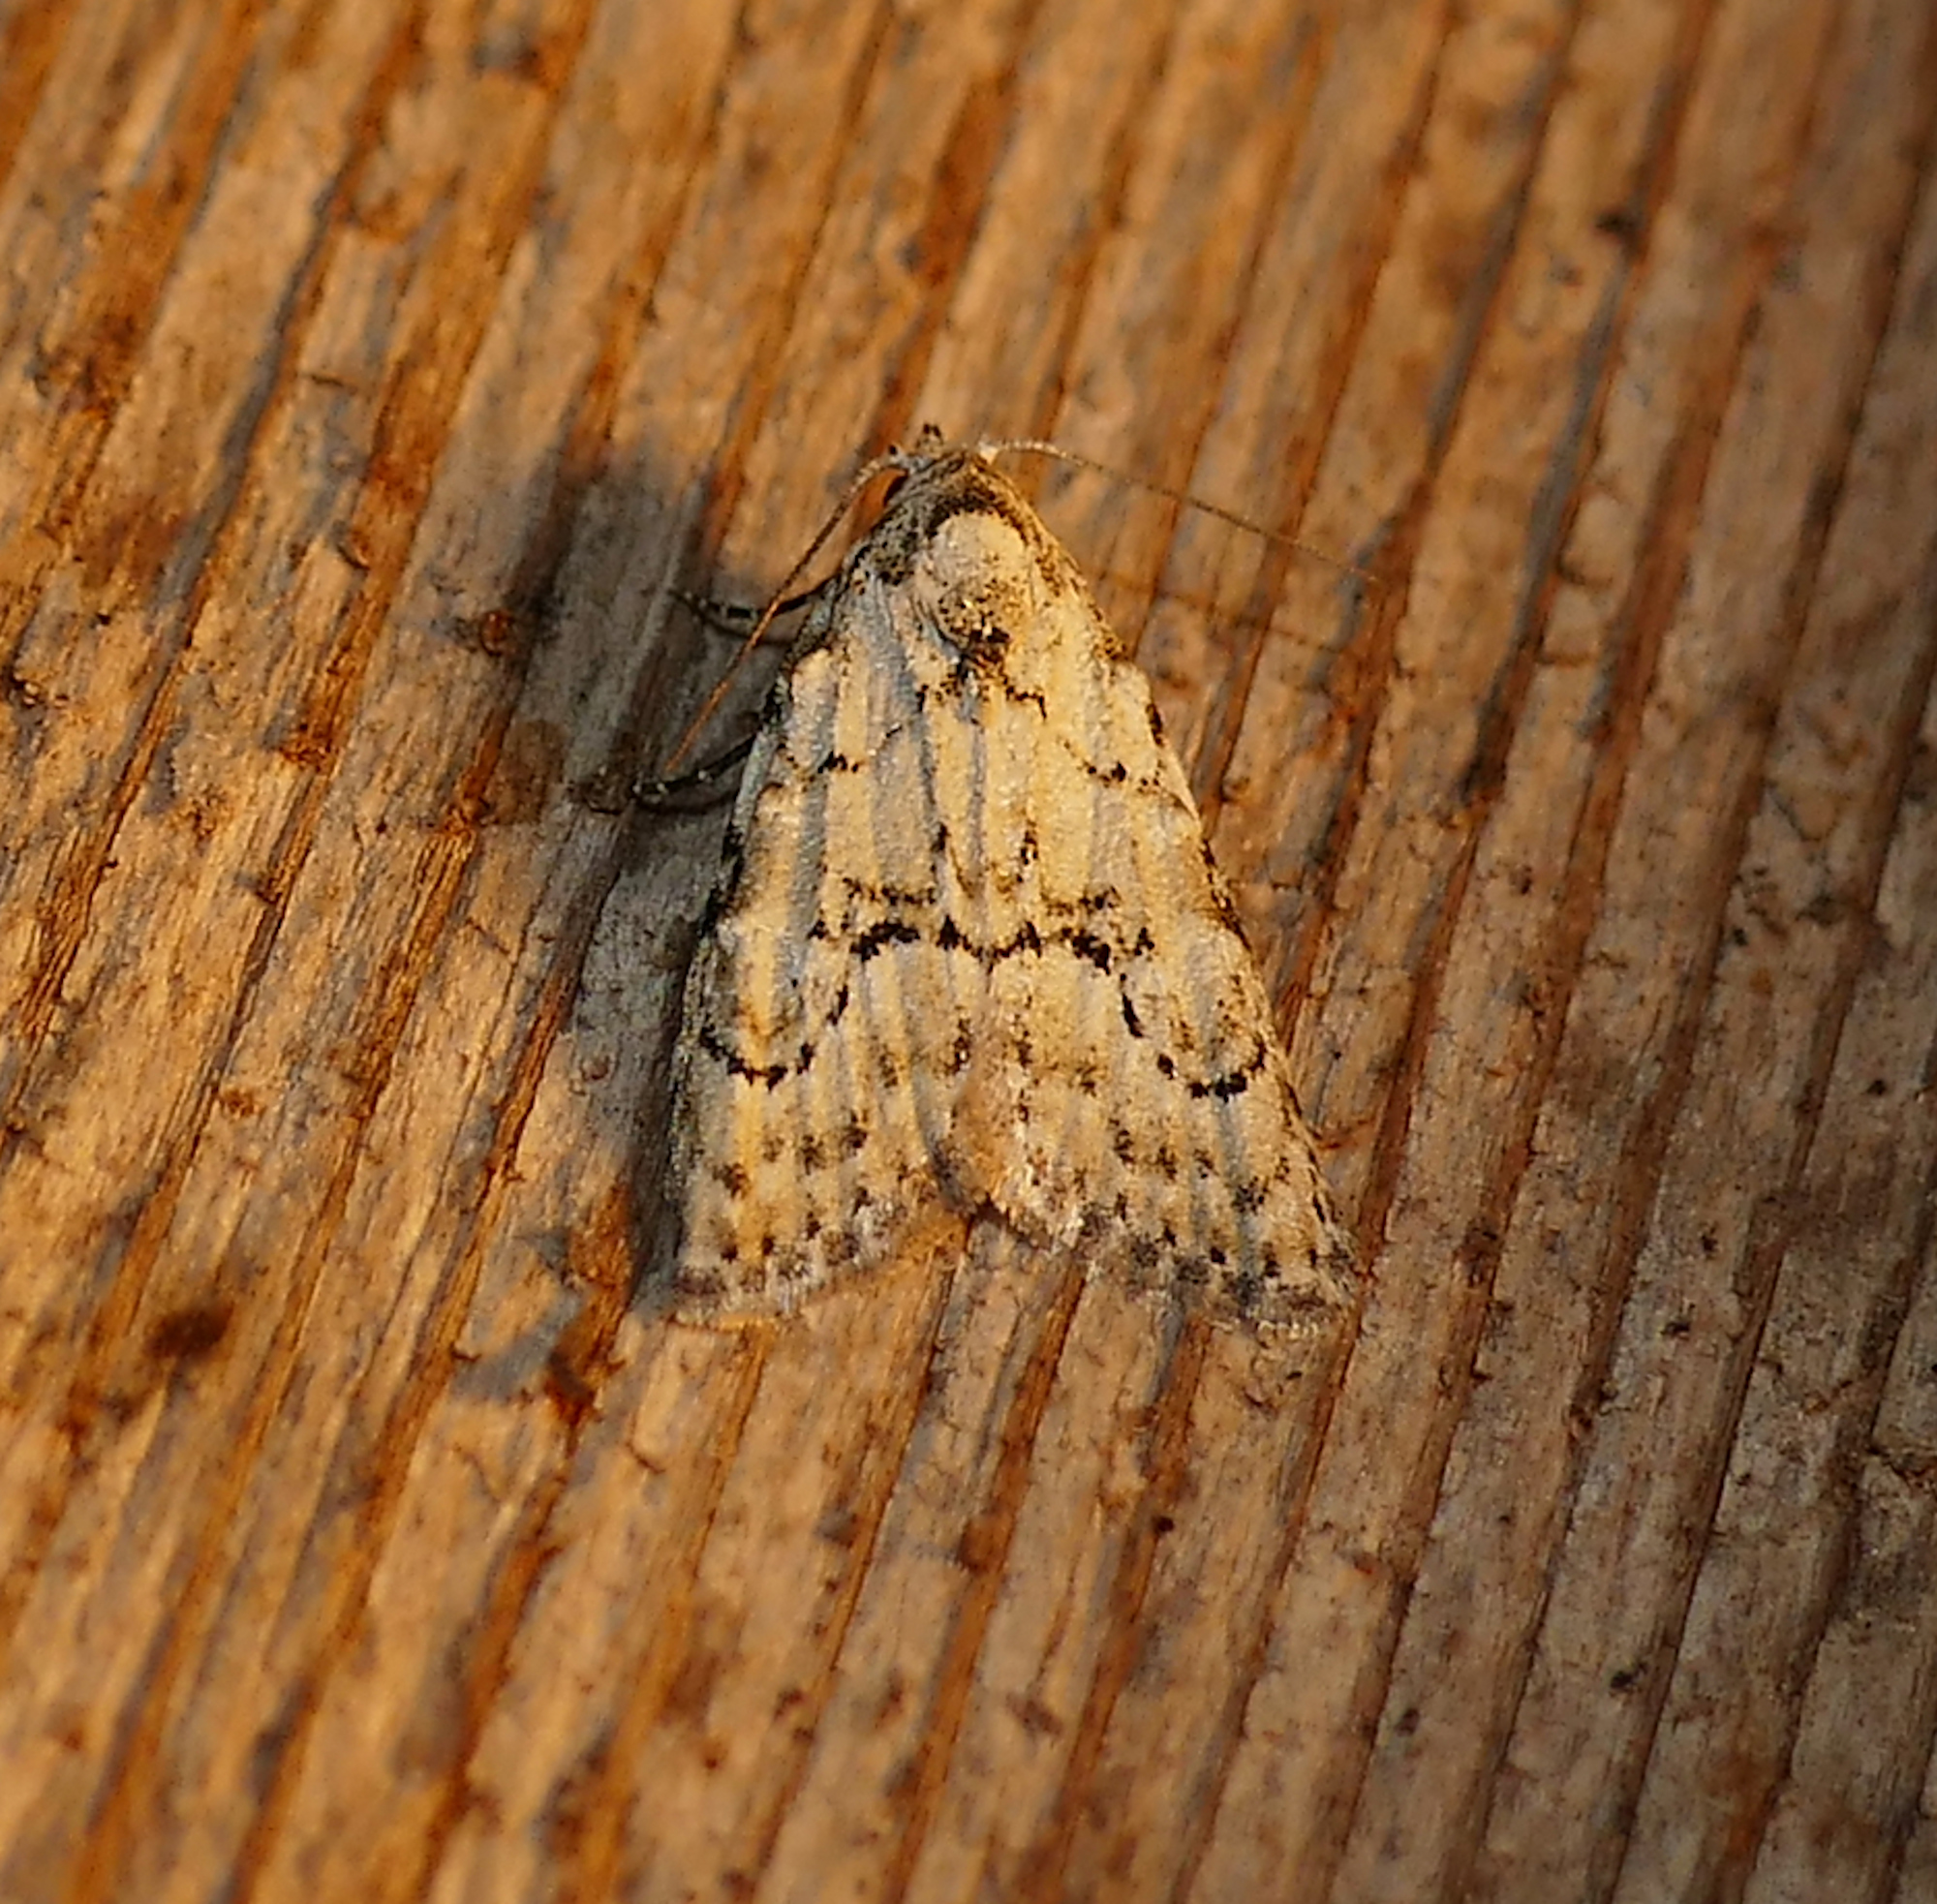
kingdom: Animalia
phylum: Arthropoda
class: Insecta
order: Lepidoptera
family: Nolidae
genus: Meganola
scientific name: Meganola minuscula
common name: Confused meganola moth
